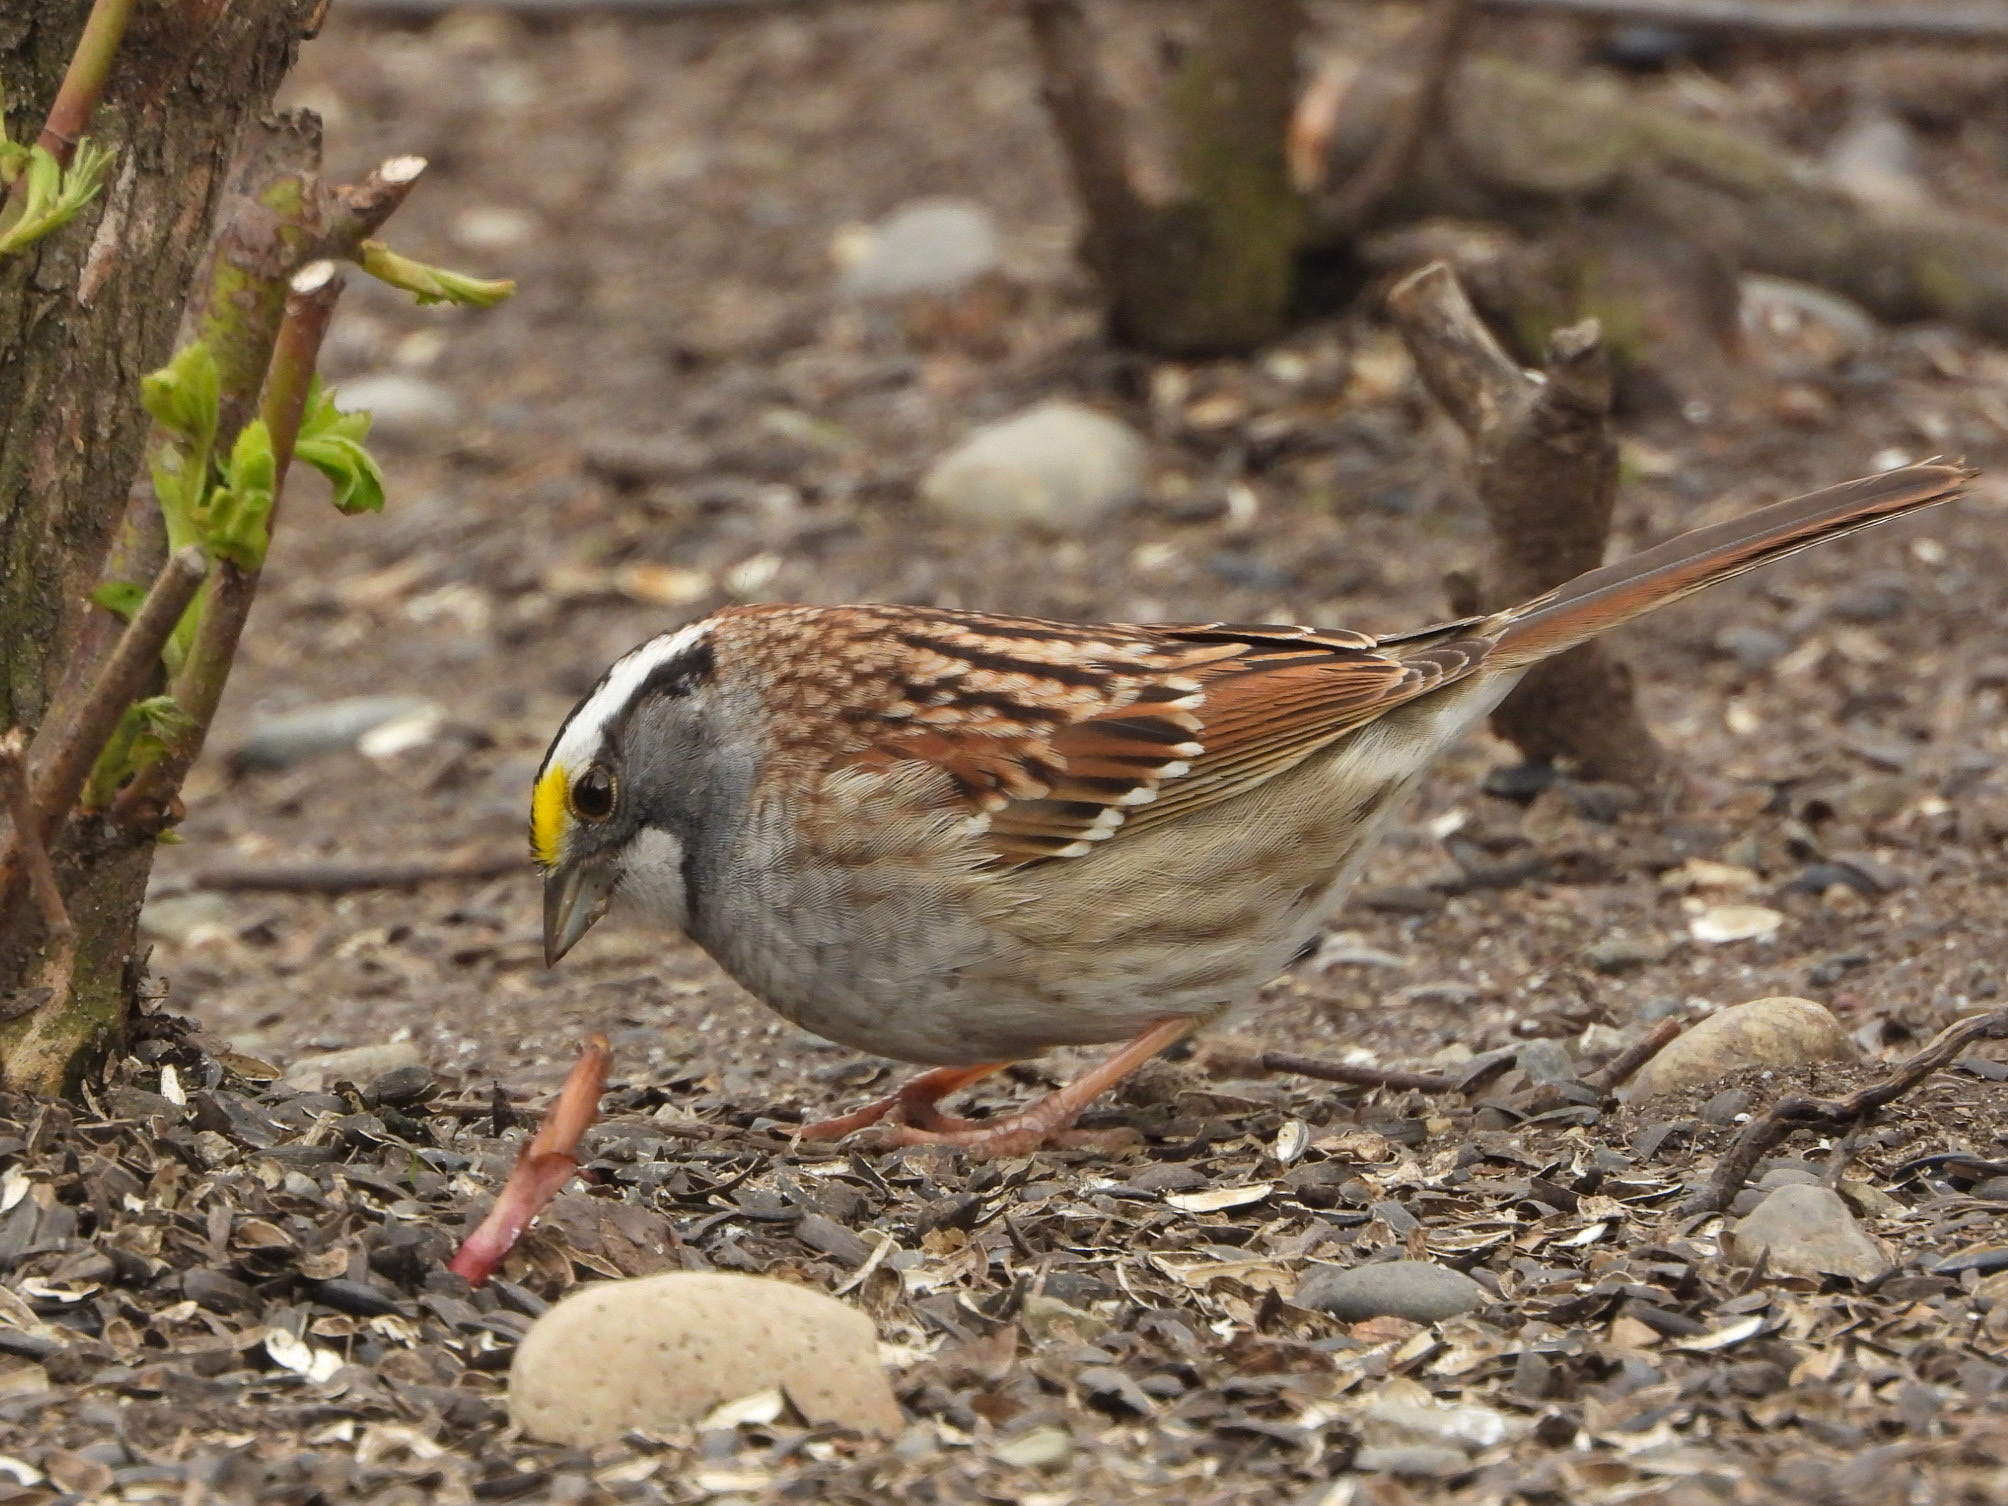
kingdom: Animalia
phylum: Chordata
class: Aves
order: Passeriformes
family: Passerellidae
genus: Zonotrichia
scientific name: Zonotrichia albicollis
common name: White-throated sparrow
